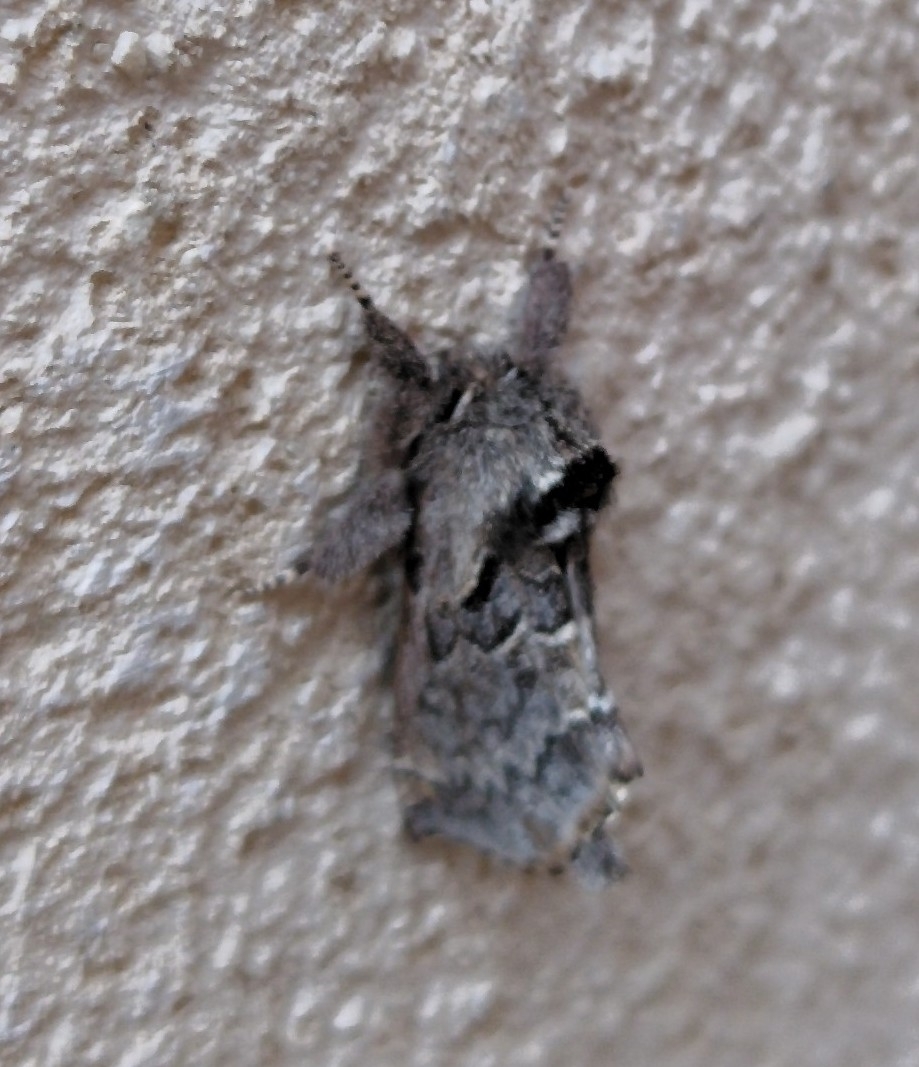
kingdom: Animalia
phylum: Arthropoda
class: Insecta
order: Lepidoptera
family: Notodontidae
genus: Drymonia
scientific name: Drymonia obliterata
